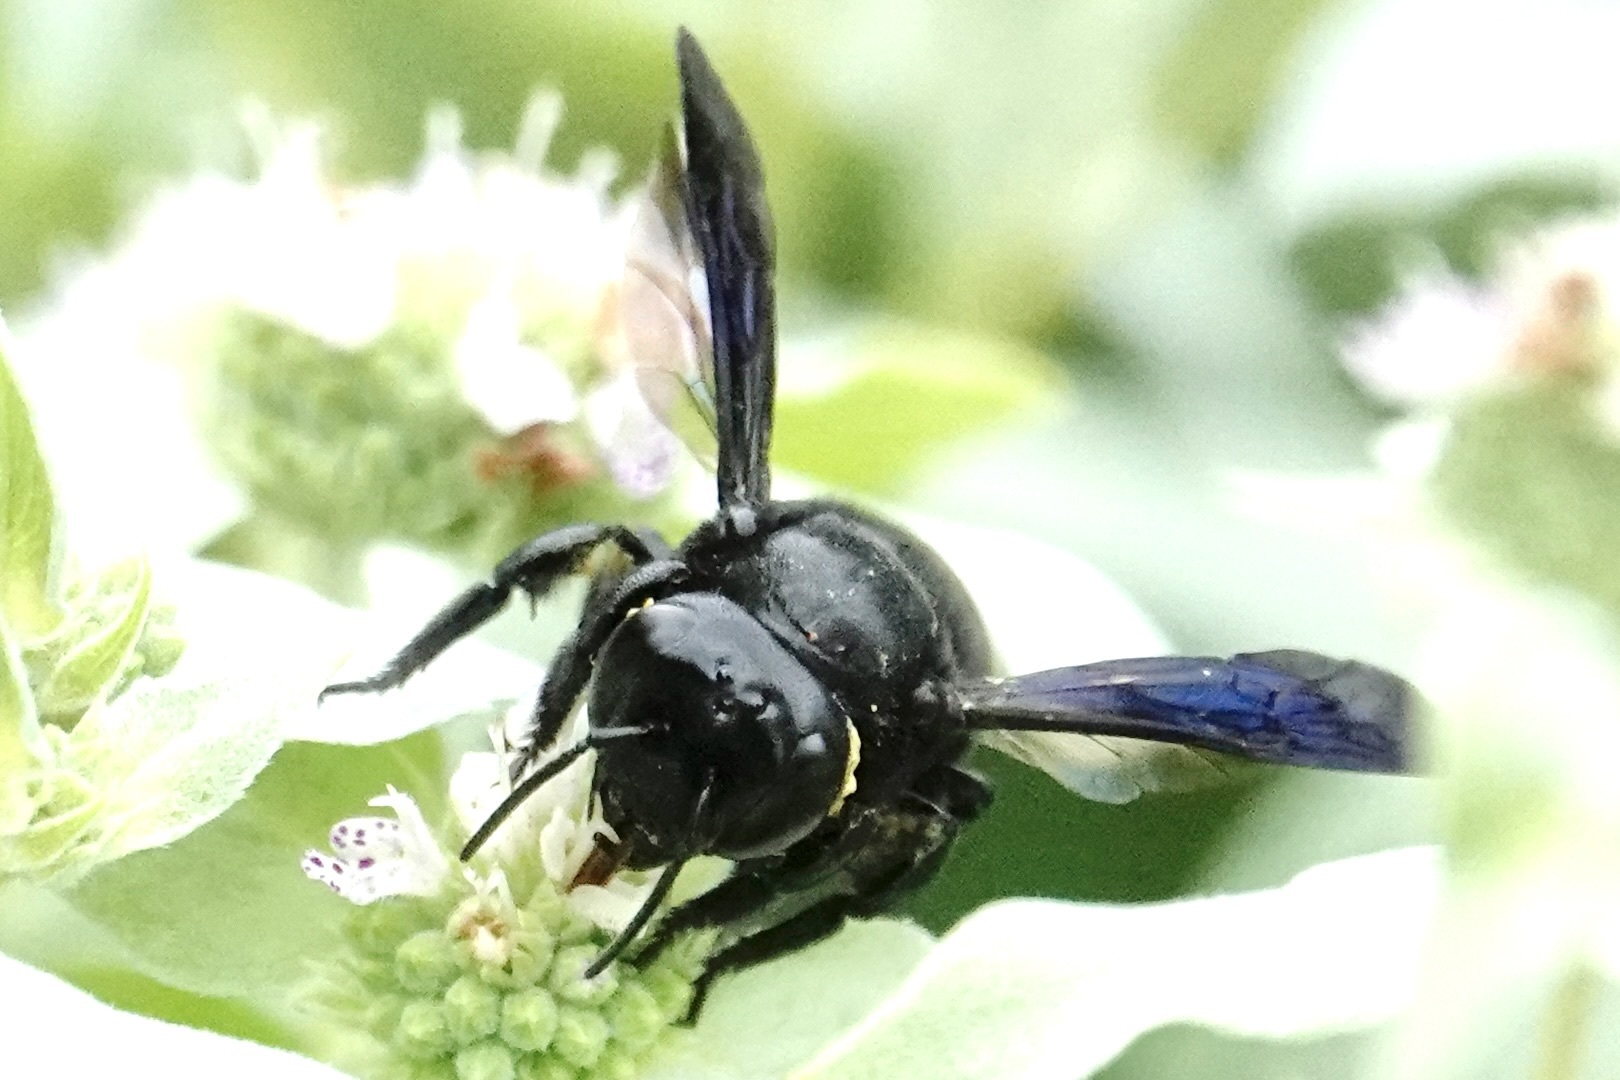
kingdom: Animalia
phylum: Arthropoda
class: Insecta
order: Hymenoptera
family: Megachilidae
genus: Megachile
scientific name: Megachile xylocopoides
